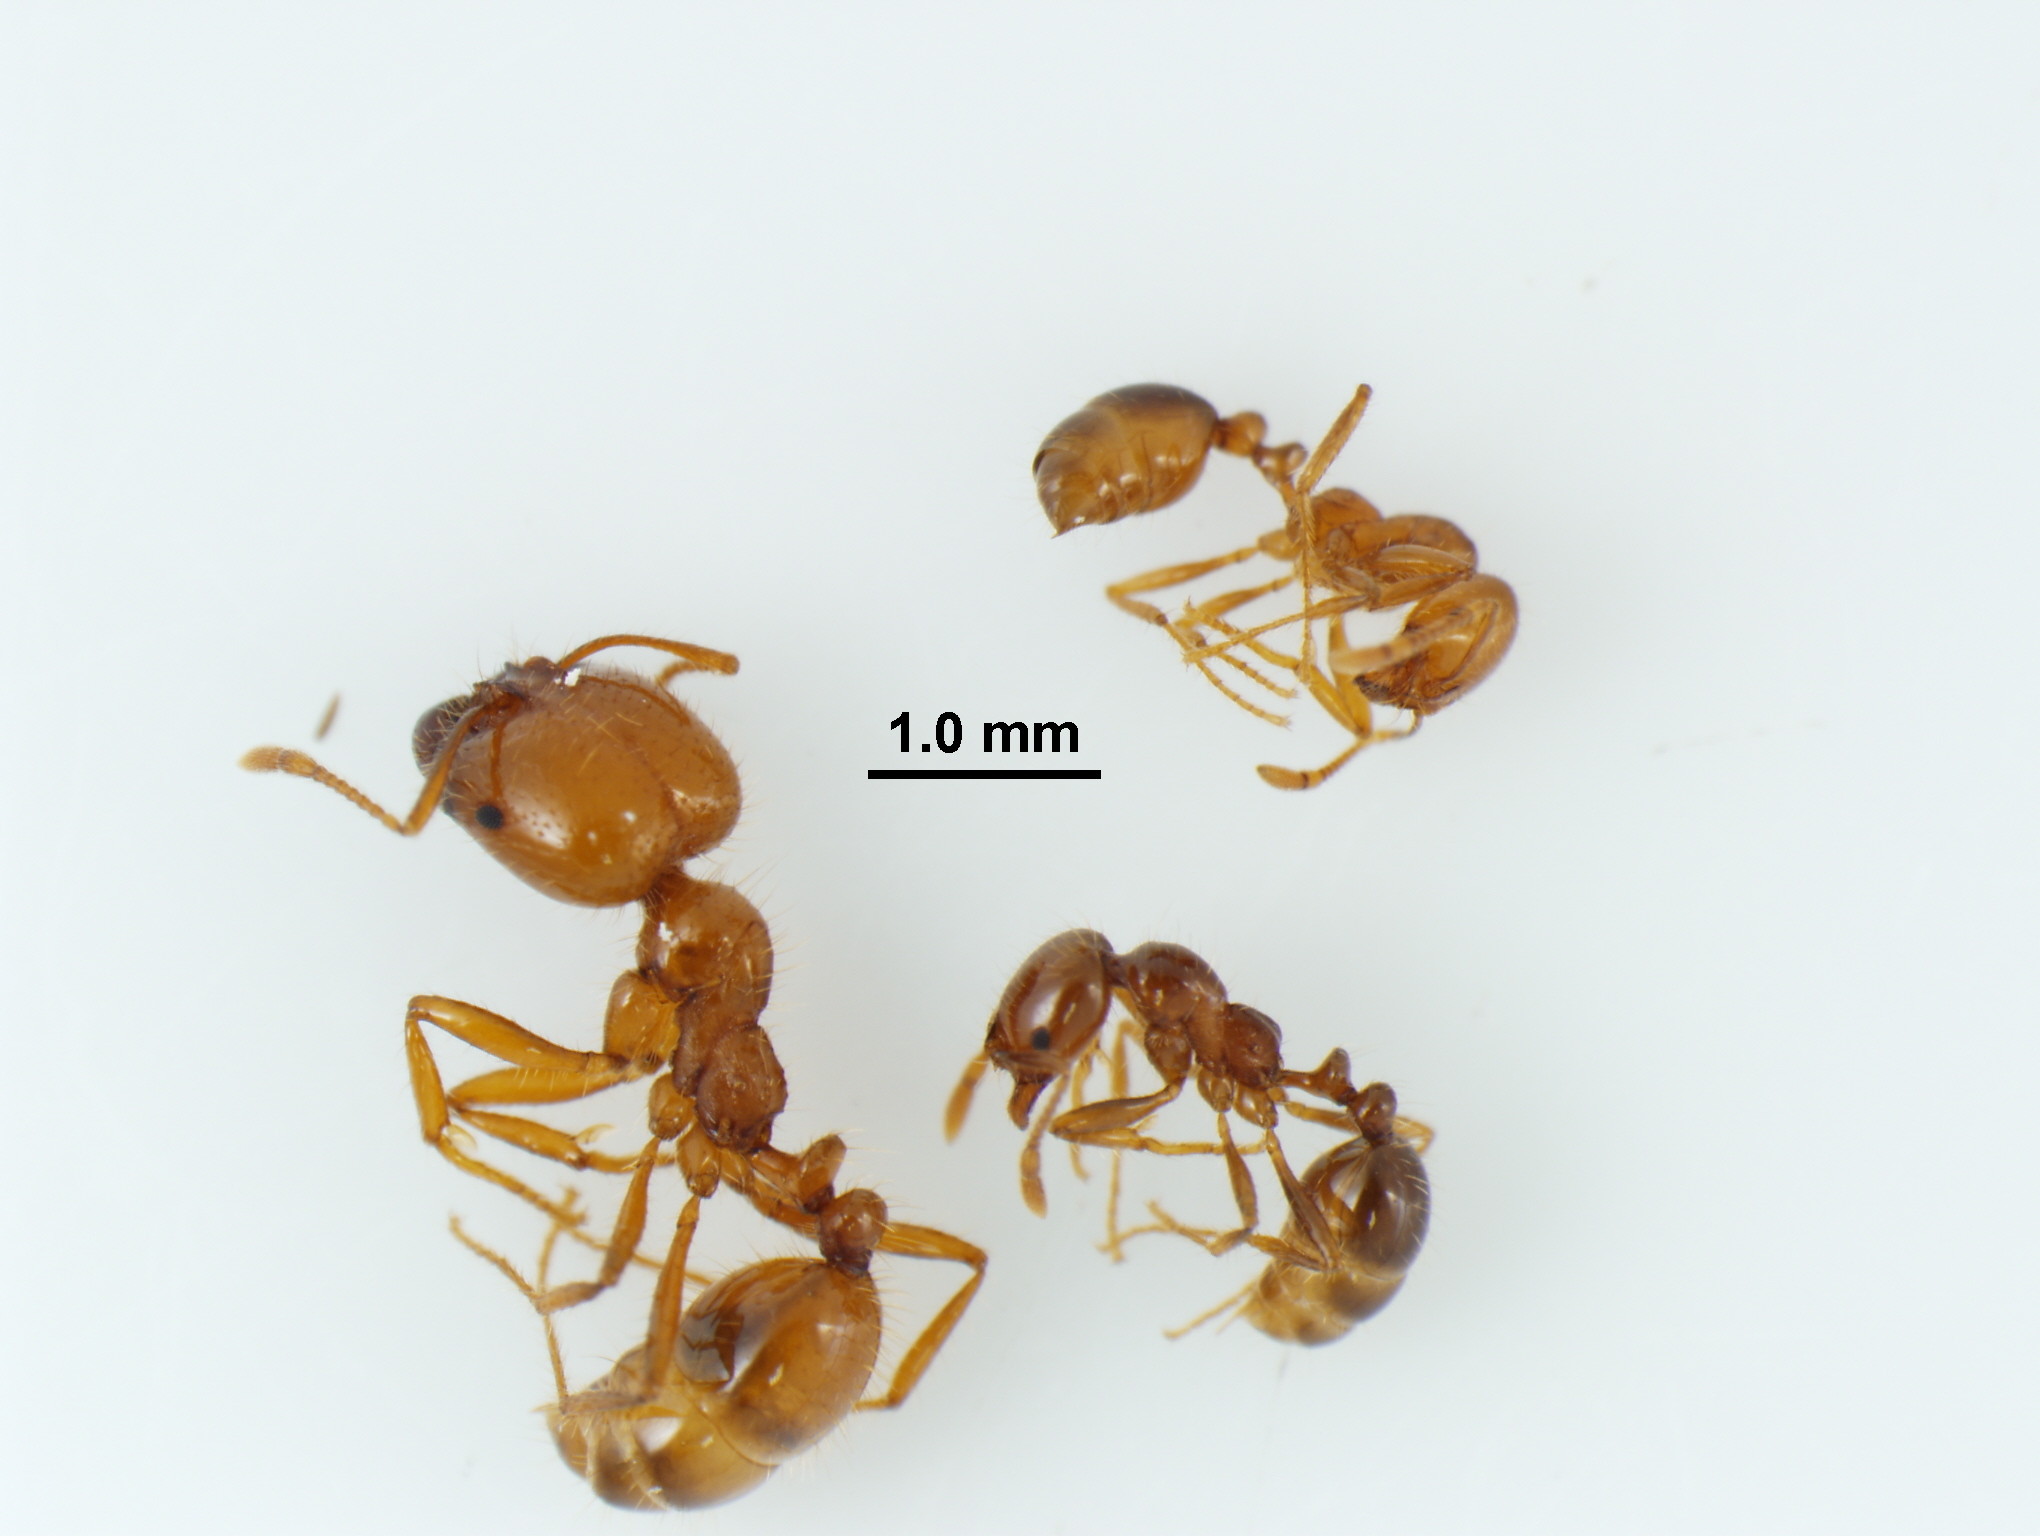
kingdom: Animalia
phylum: Arthropoda
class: Insecta
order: Hymenoptera
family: Formicidae
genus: Solenopsis
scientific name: Solenopsis geminata
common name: Tropical fire ant
